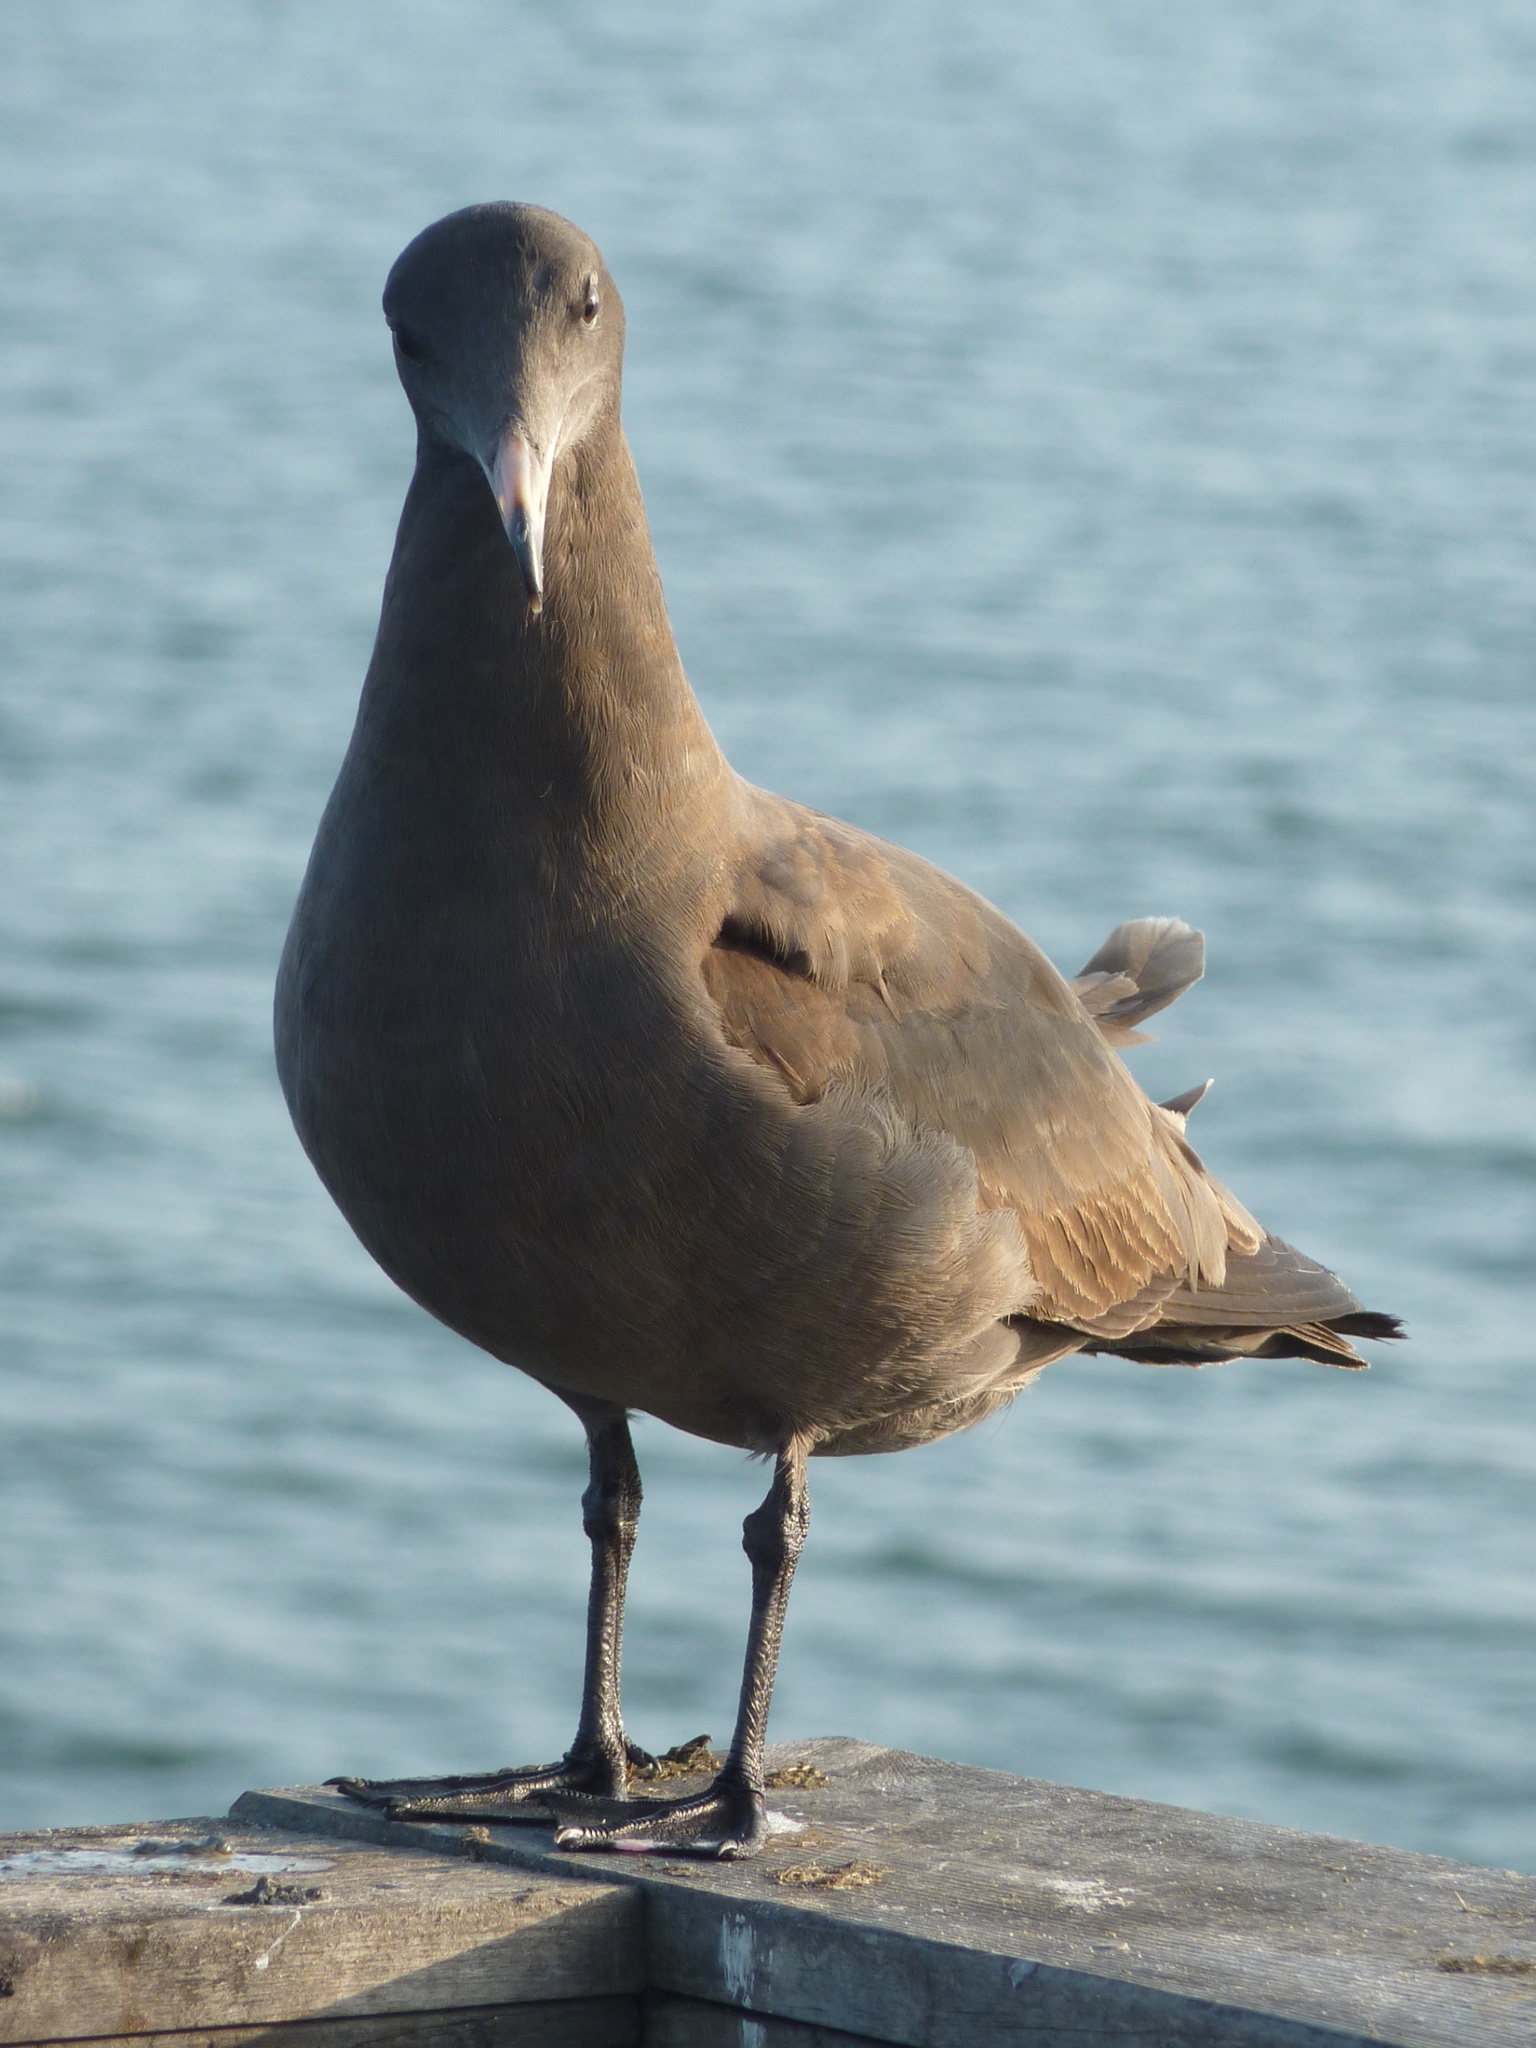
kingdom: Animalia
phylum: Chordata
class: Aves
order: Charadriiformes
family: Laridae
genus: Larus
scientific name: Larus heermanni
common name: Heermann's gull
